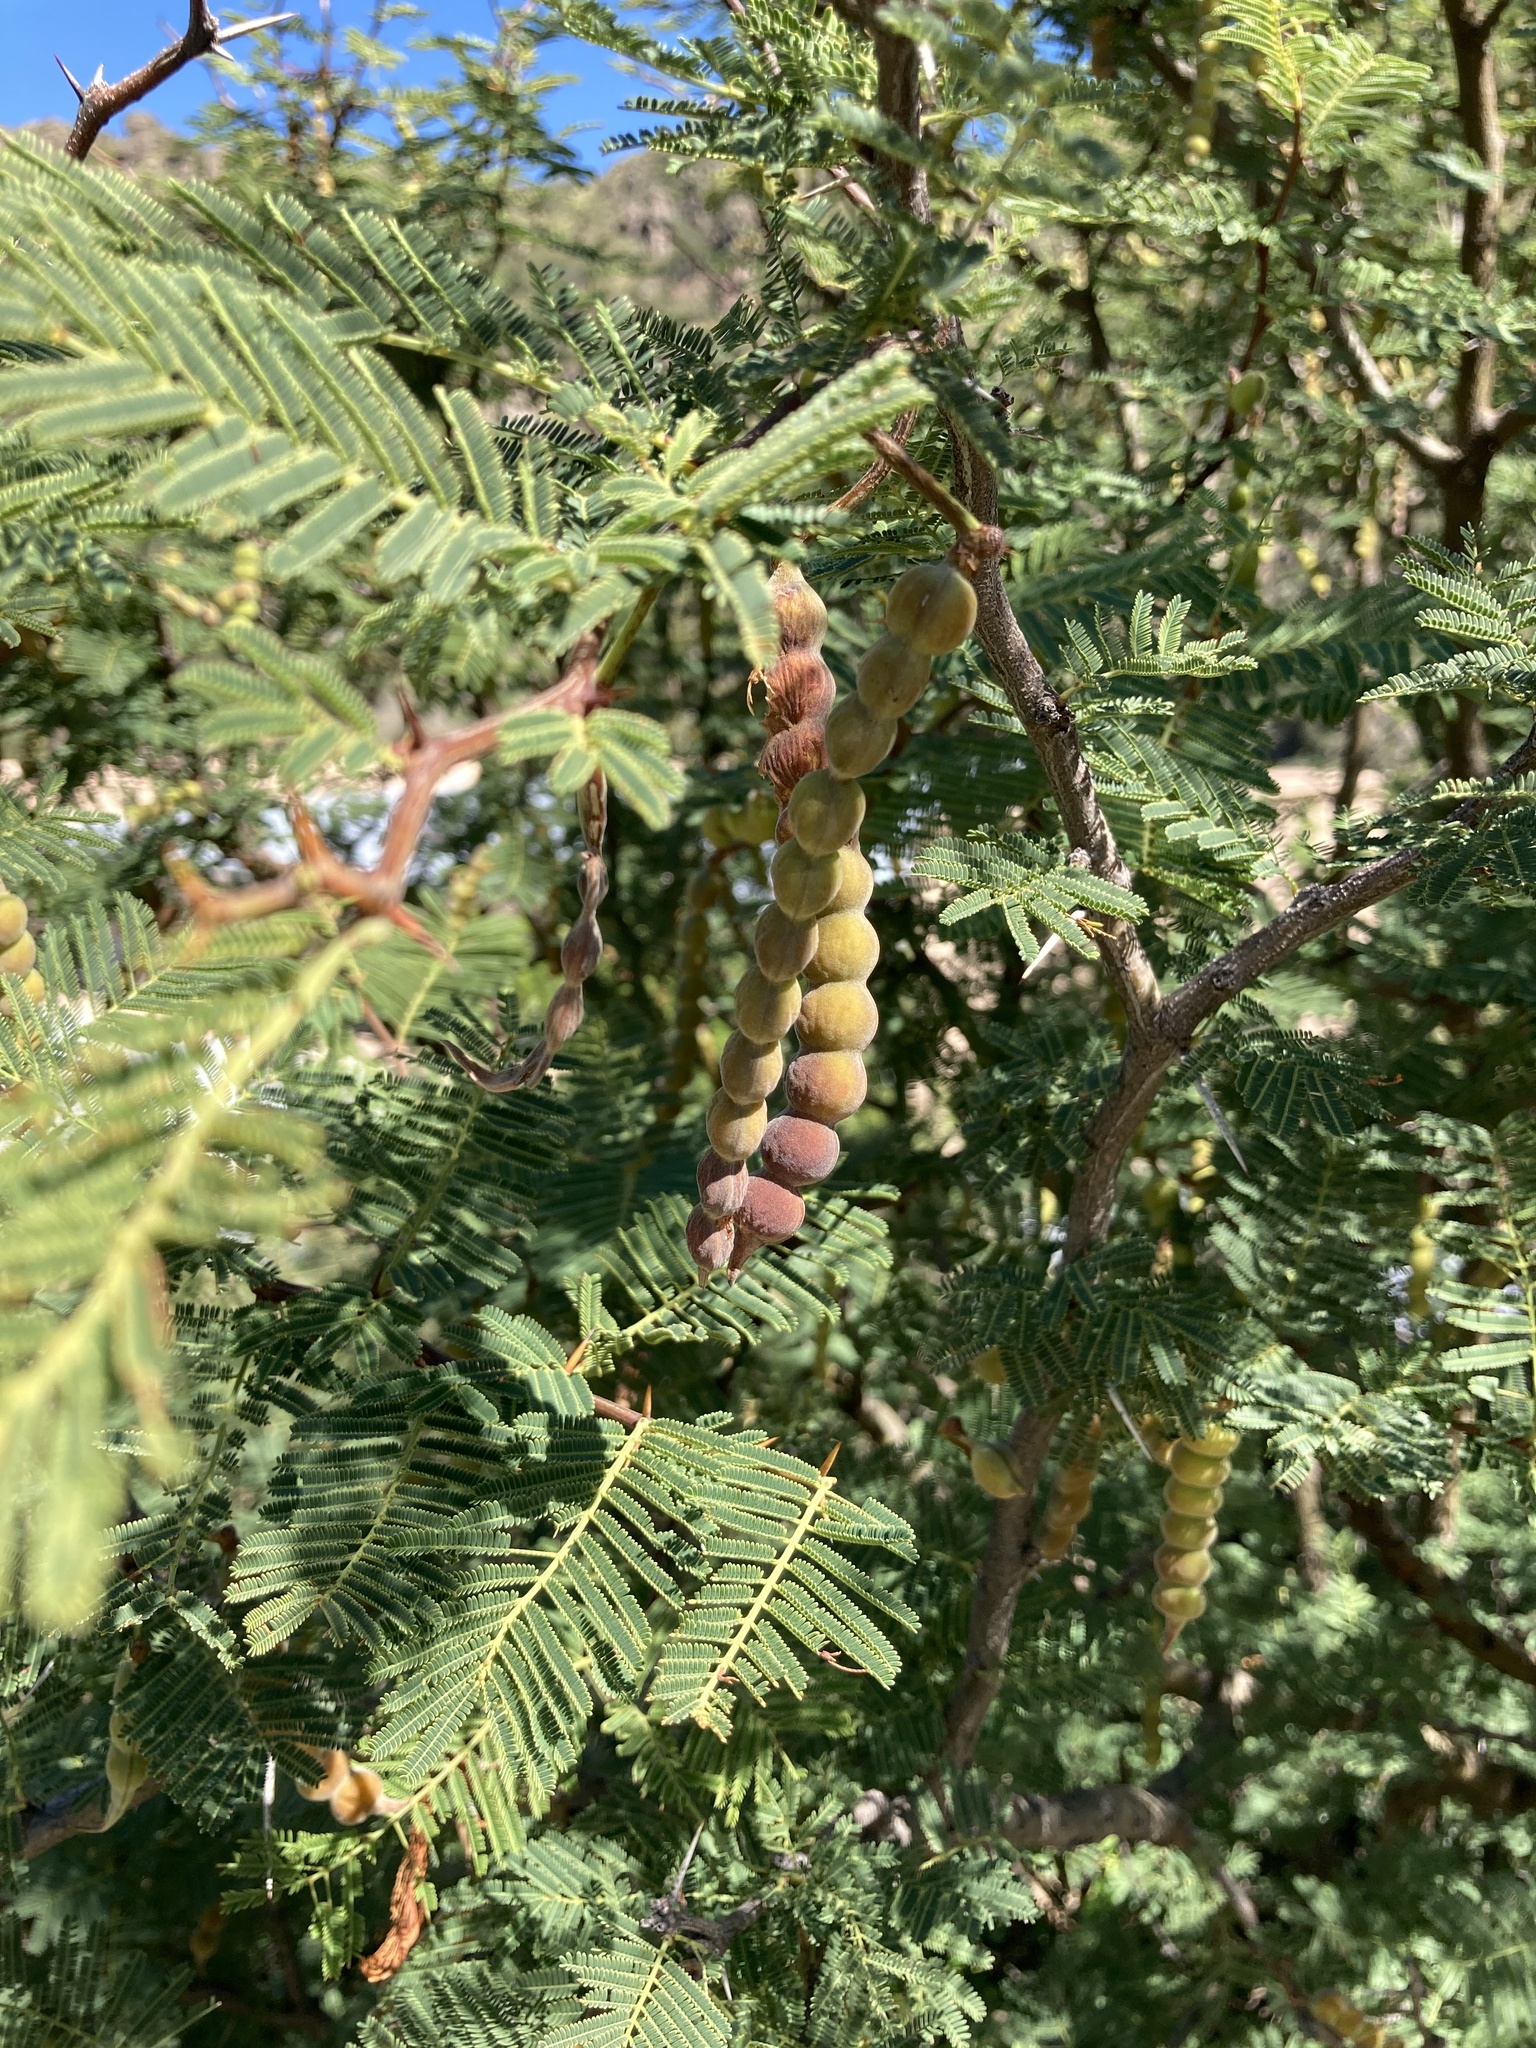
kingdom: Plantae
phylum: Tracheophyta
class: Magnoliopsida
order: Fabales
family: Fabaceae
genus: Vachellia
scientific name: Vachellia aroma
